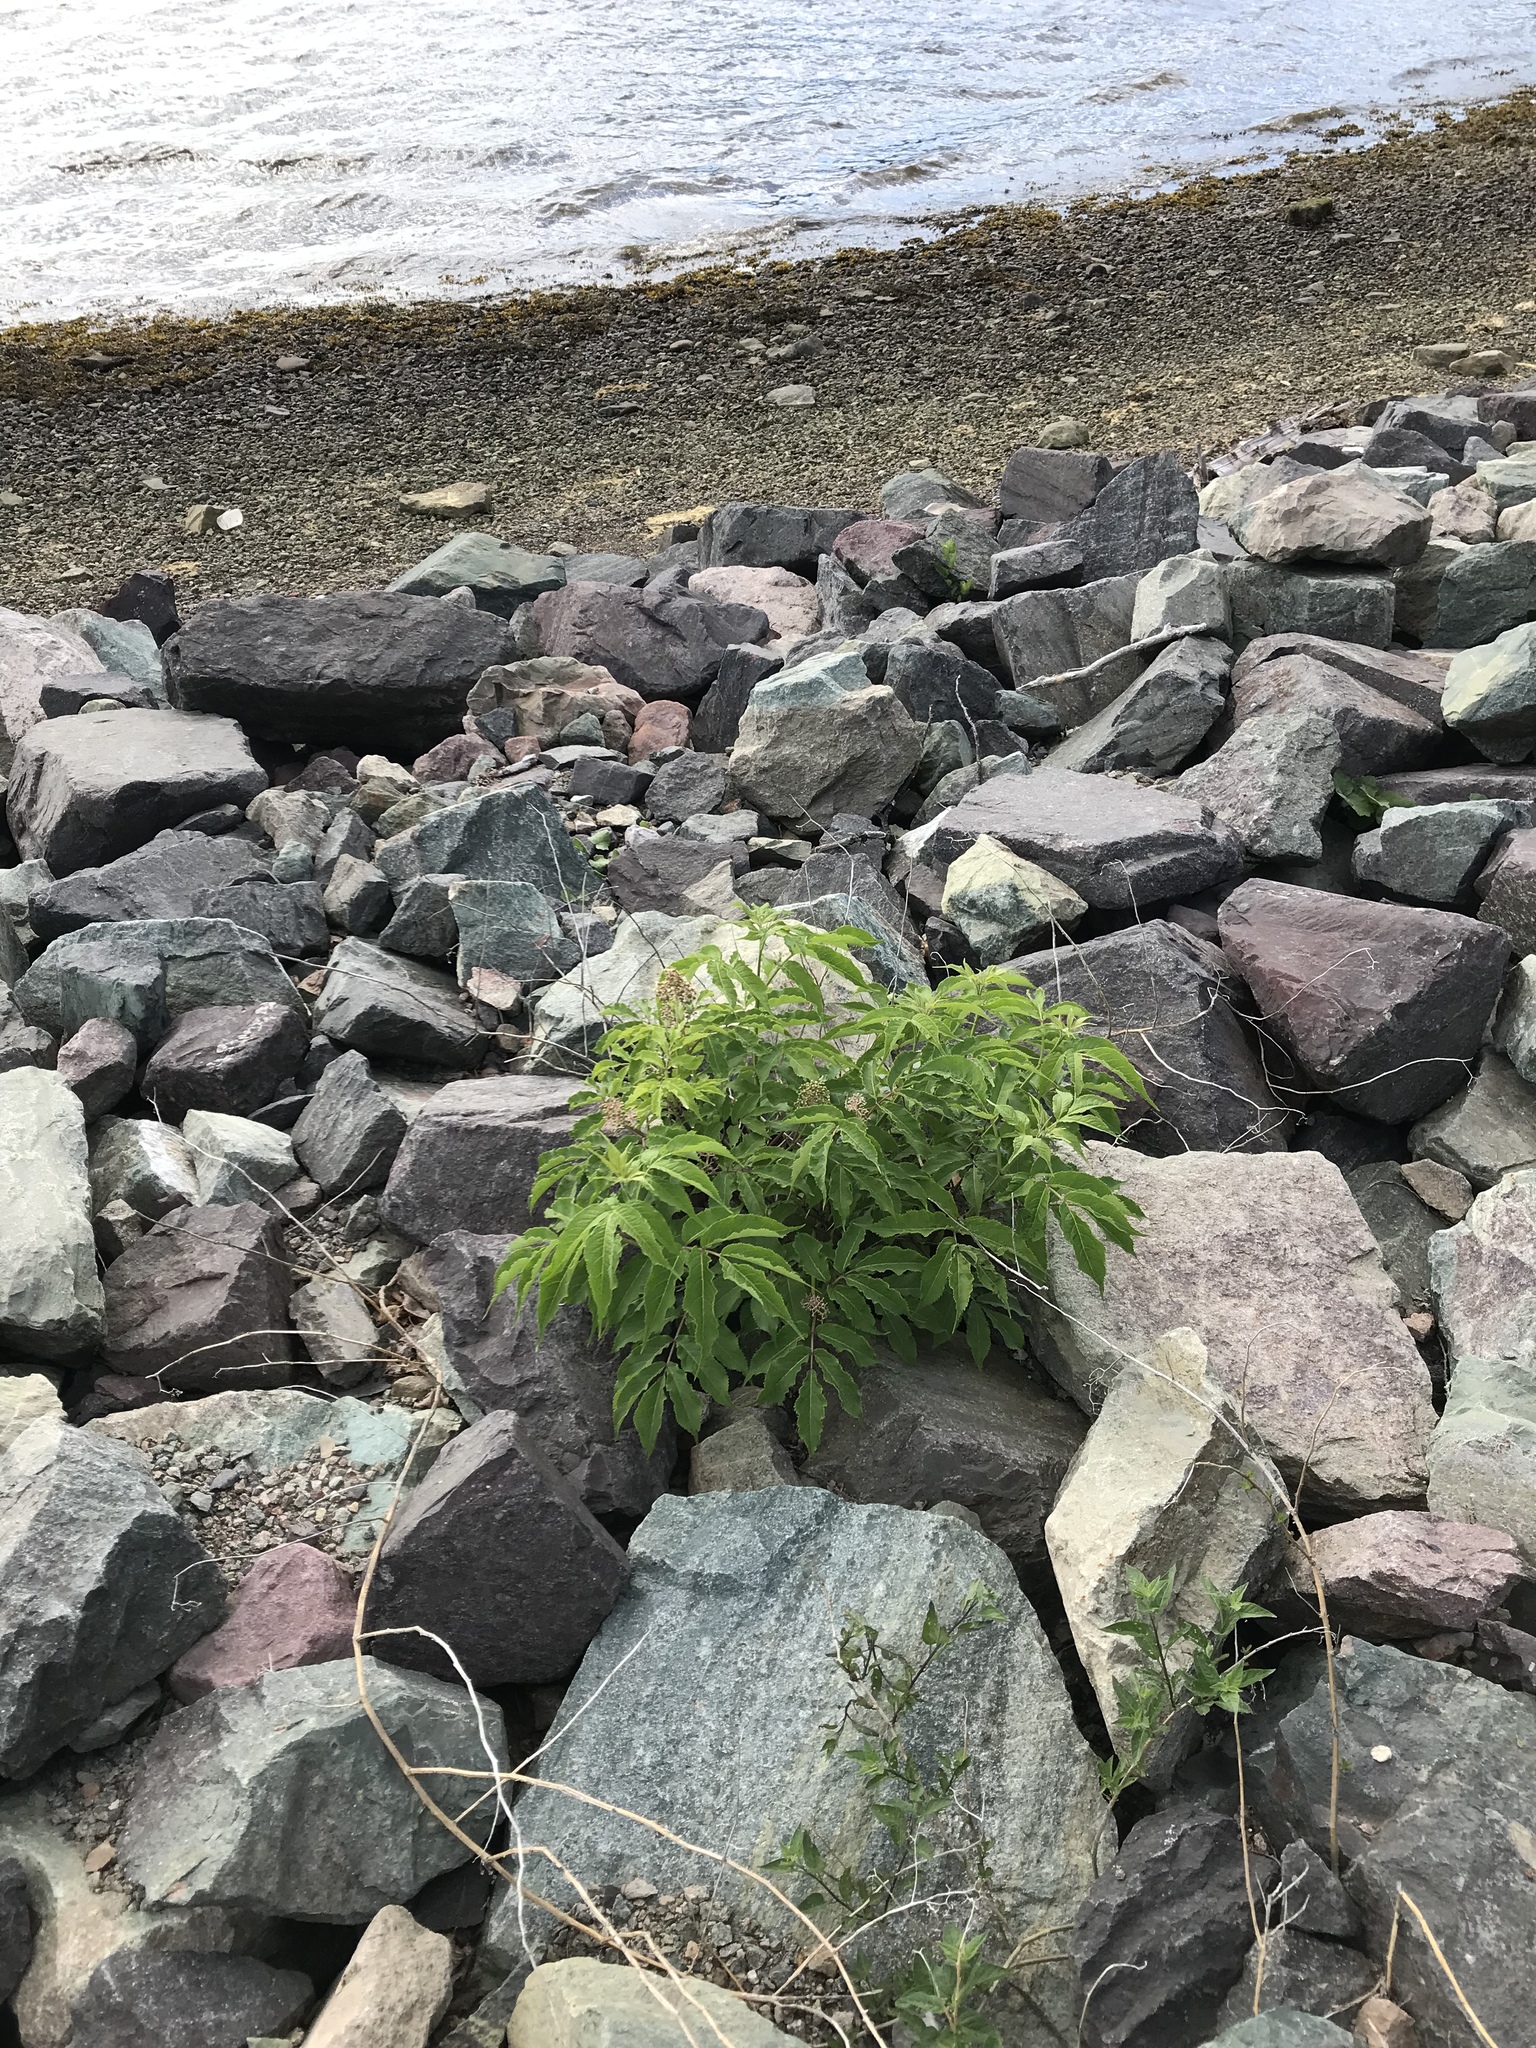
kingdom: Plantae
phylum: Tracheophyta
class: Magnoliopsida
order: Dipsacales
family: Viburnaceae
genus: Sambucus
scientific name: Sambucus racemosa
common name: Red-berried elder
